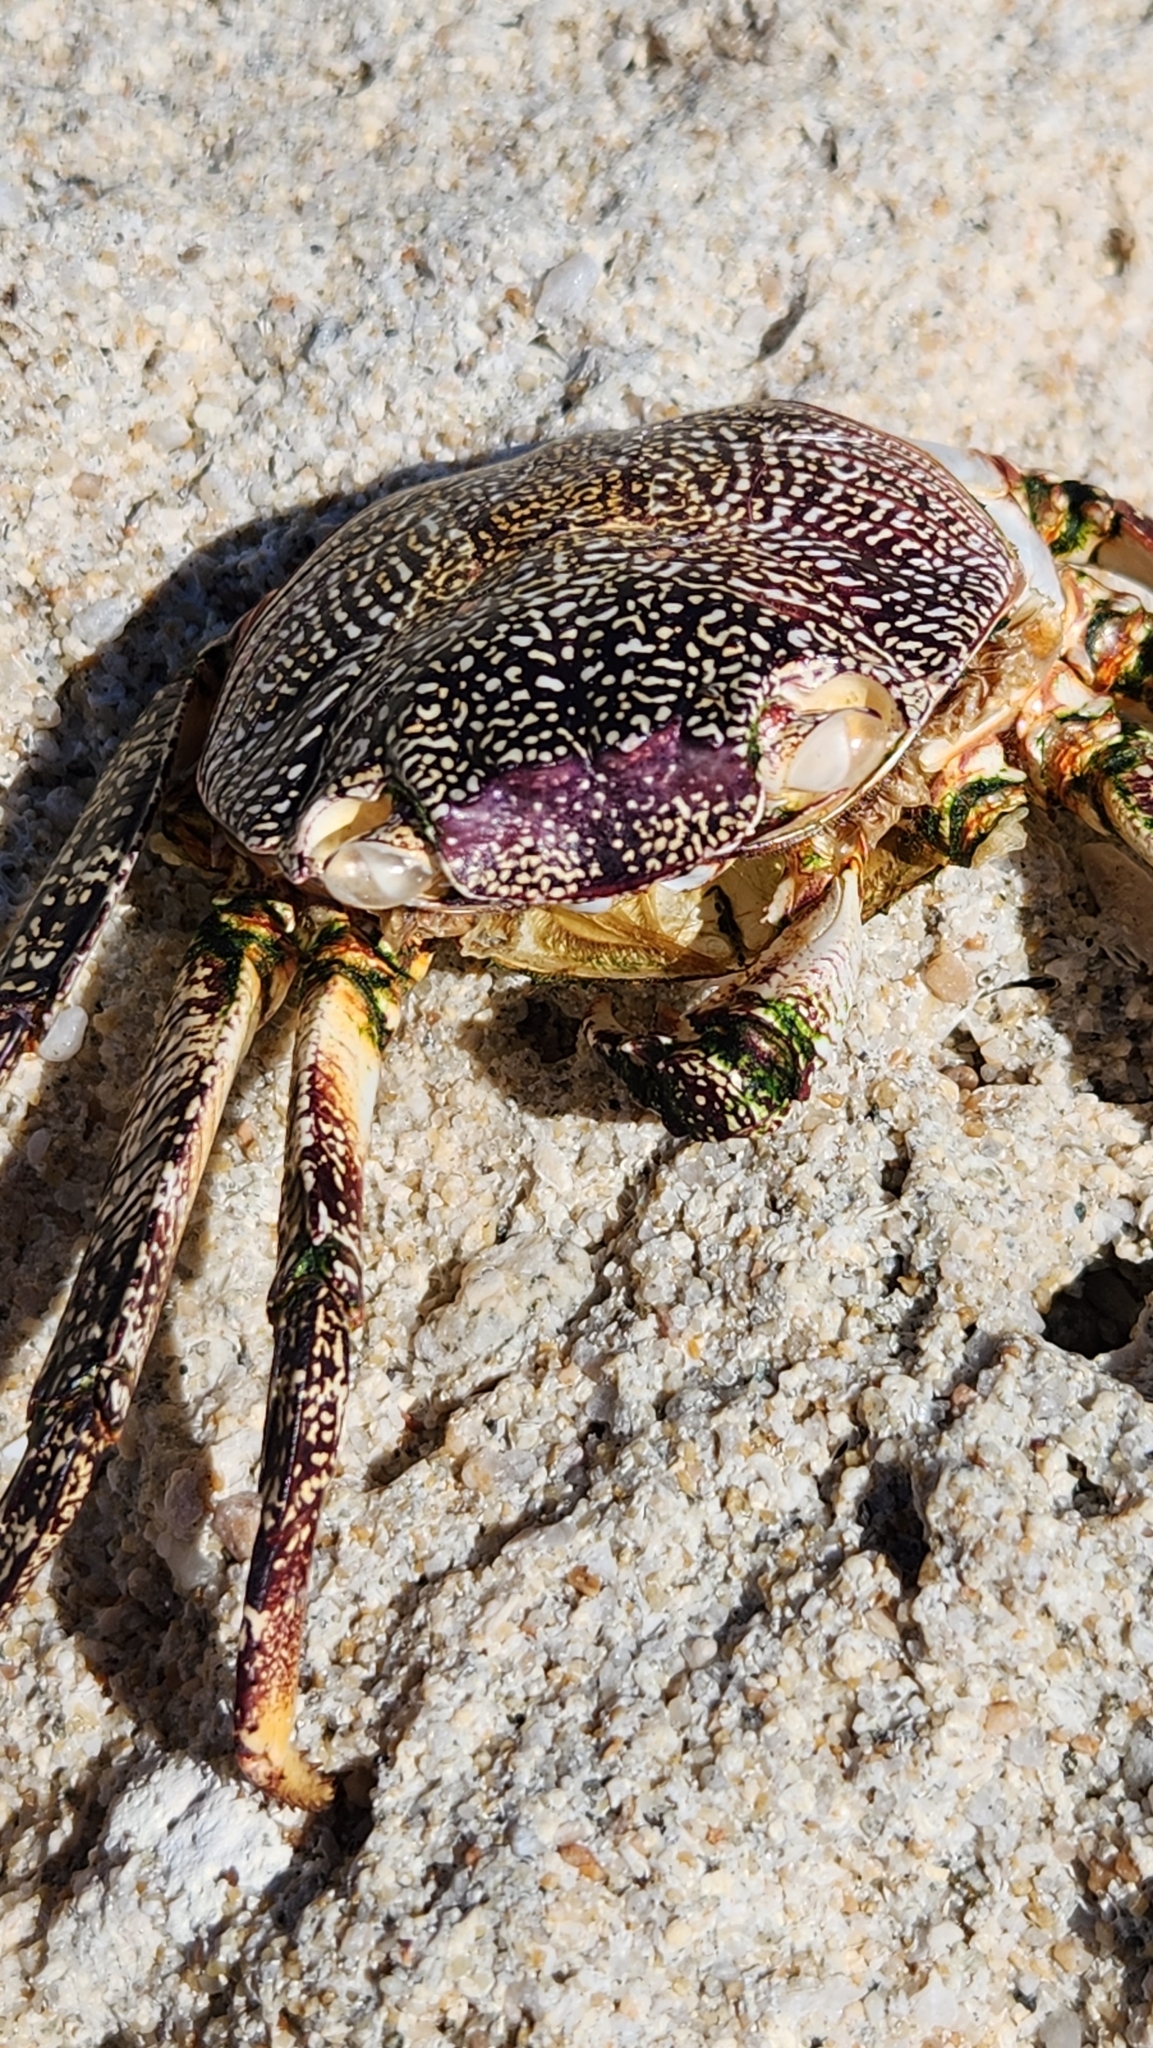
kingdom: Animalia
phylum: Arthropoda
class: Malacostraca
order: Decapoda
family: Grapsidae
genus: Grapsus
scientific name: Grapsus grapsus
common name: Sally lightfoot
